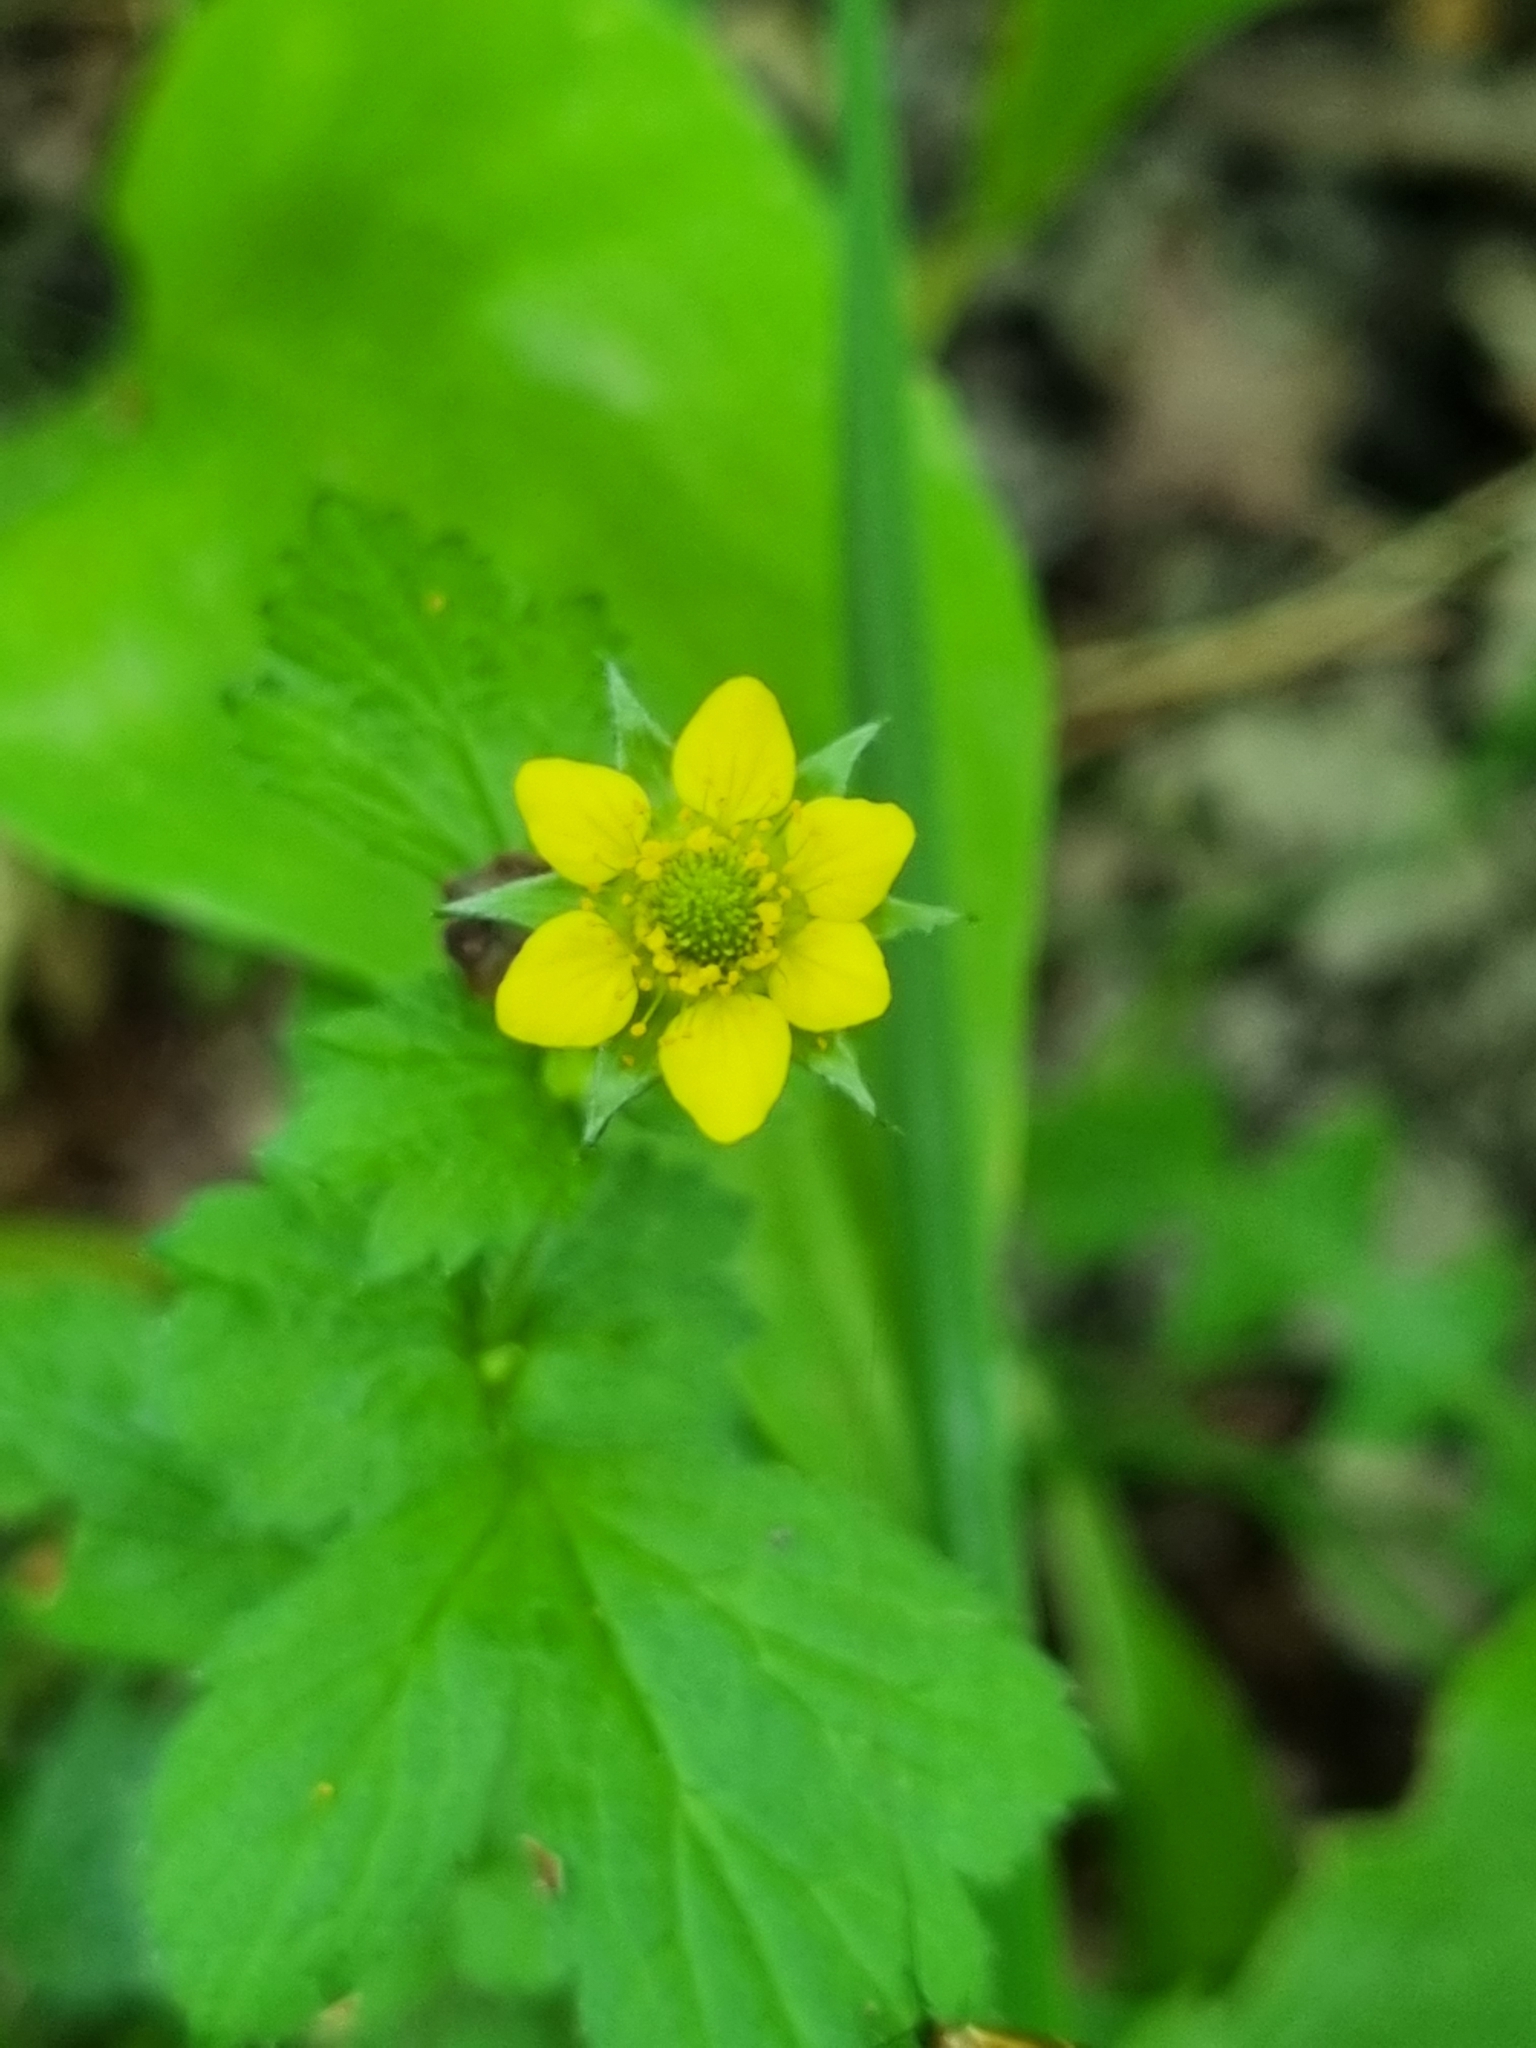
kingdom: Plantae
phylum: Tracheophyta
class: Magnoliopsida
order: Rosales
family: Rosaceae
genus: Geum
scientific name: Geum urbanum
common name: Wood avens
